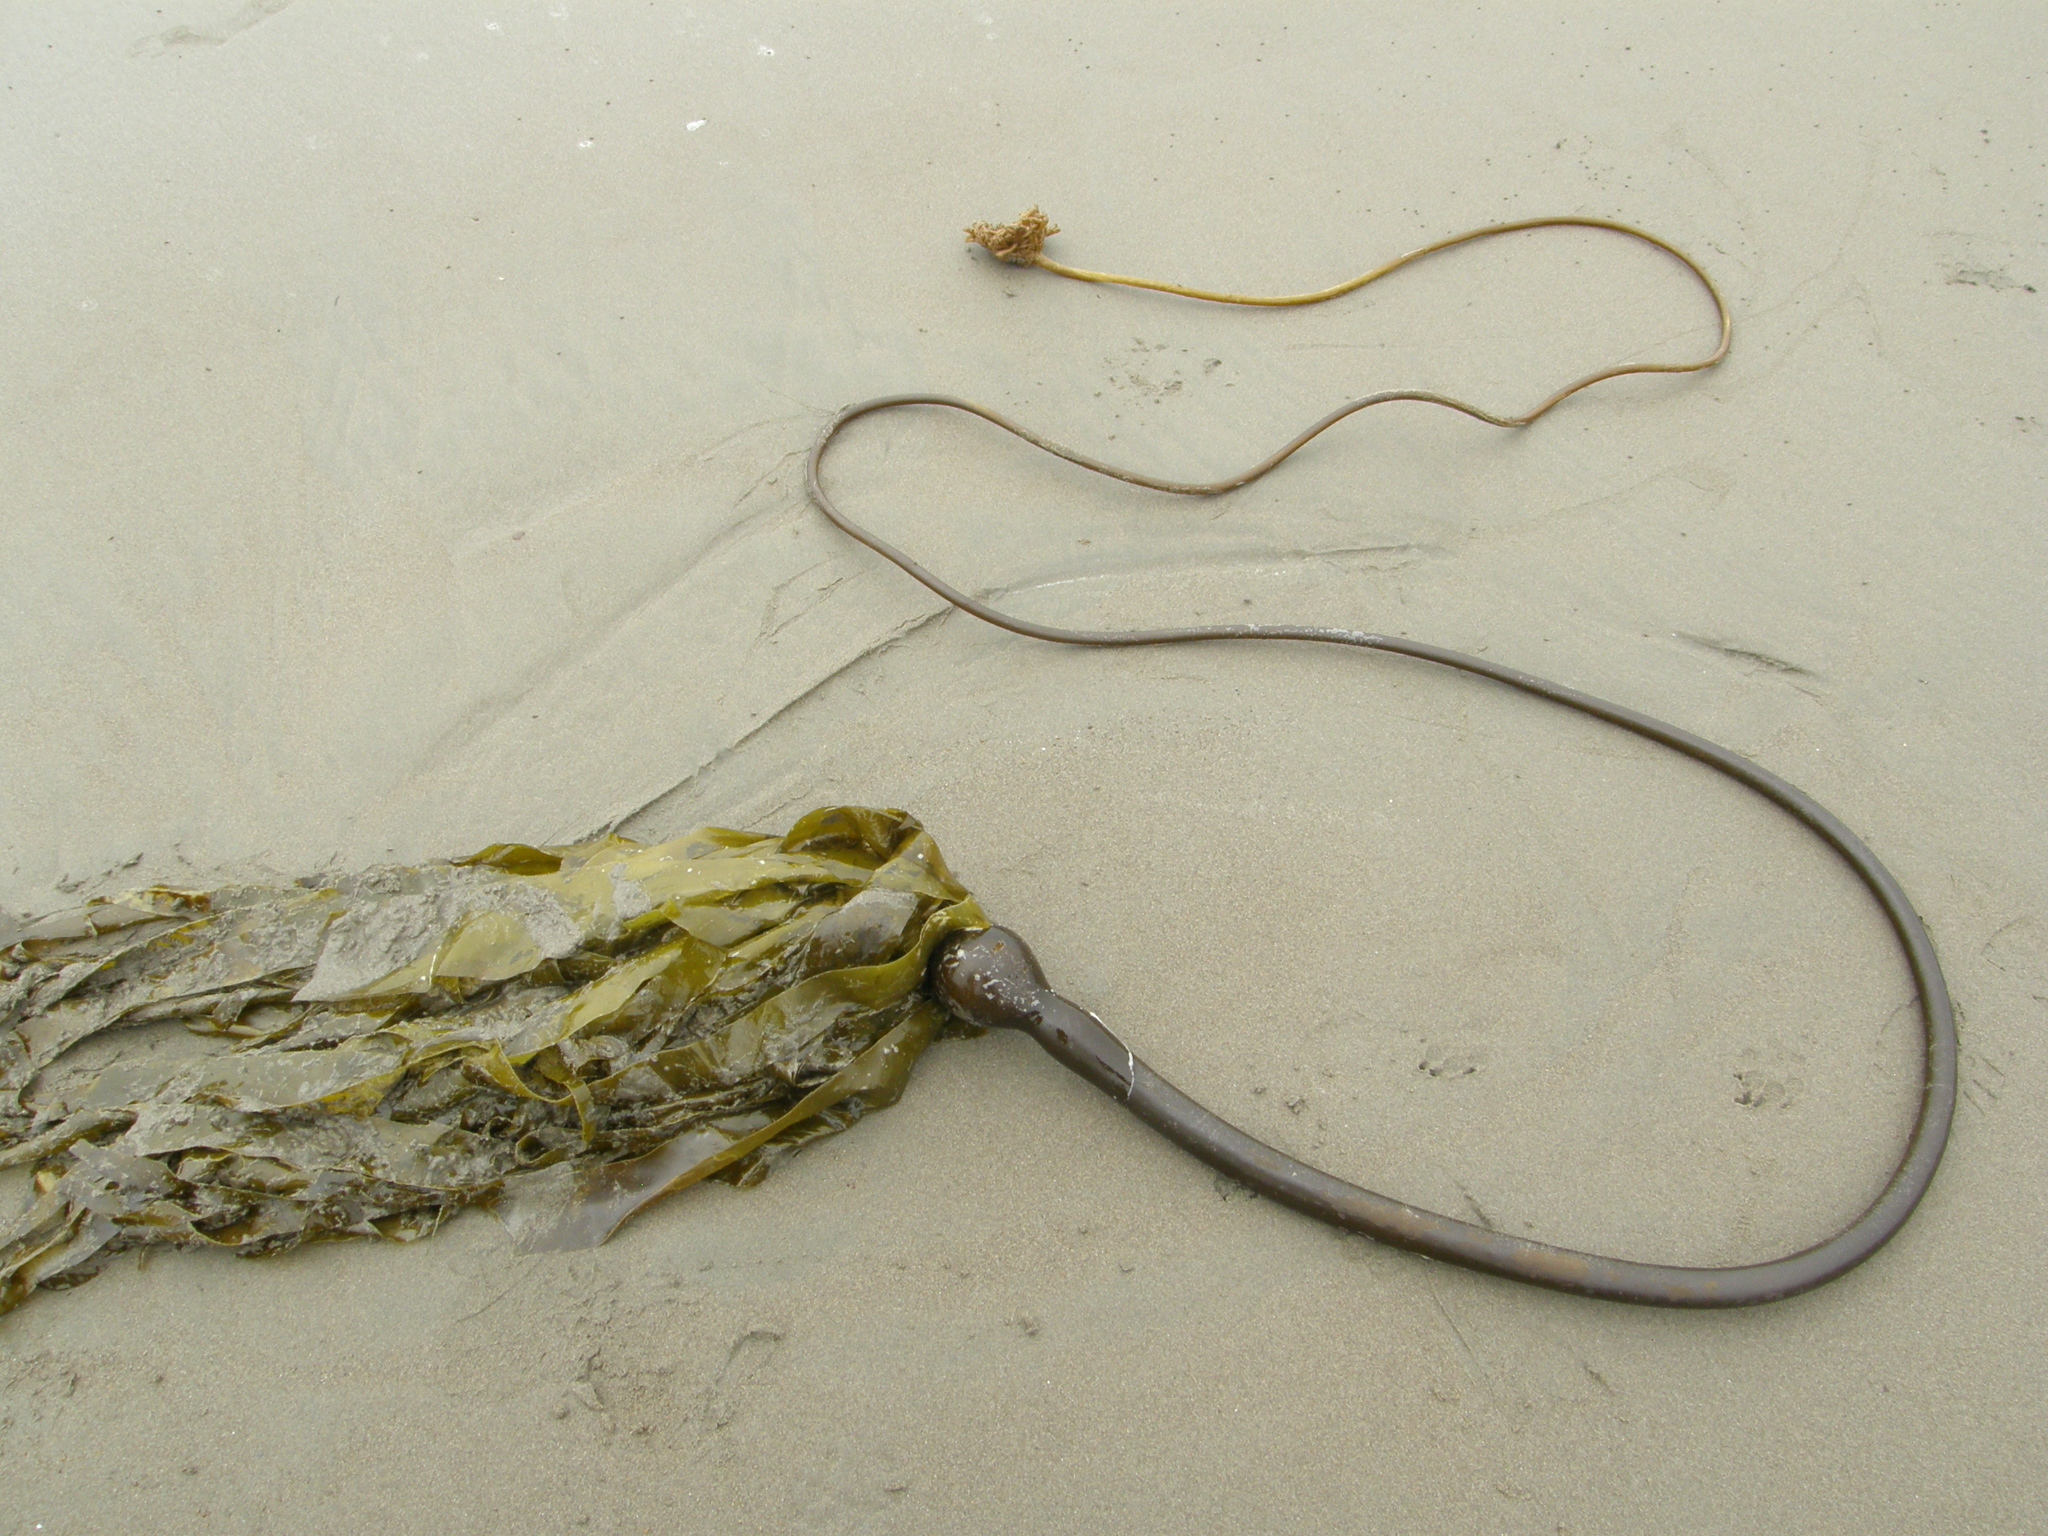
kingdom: Chromista
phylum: Ochrophyta
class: Phaeophyceae
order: Laminariales
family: Laminariaceae
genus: Nereocystis
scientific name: Nereocystis luetkeana
